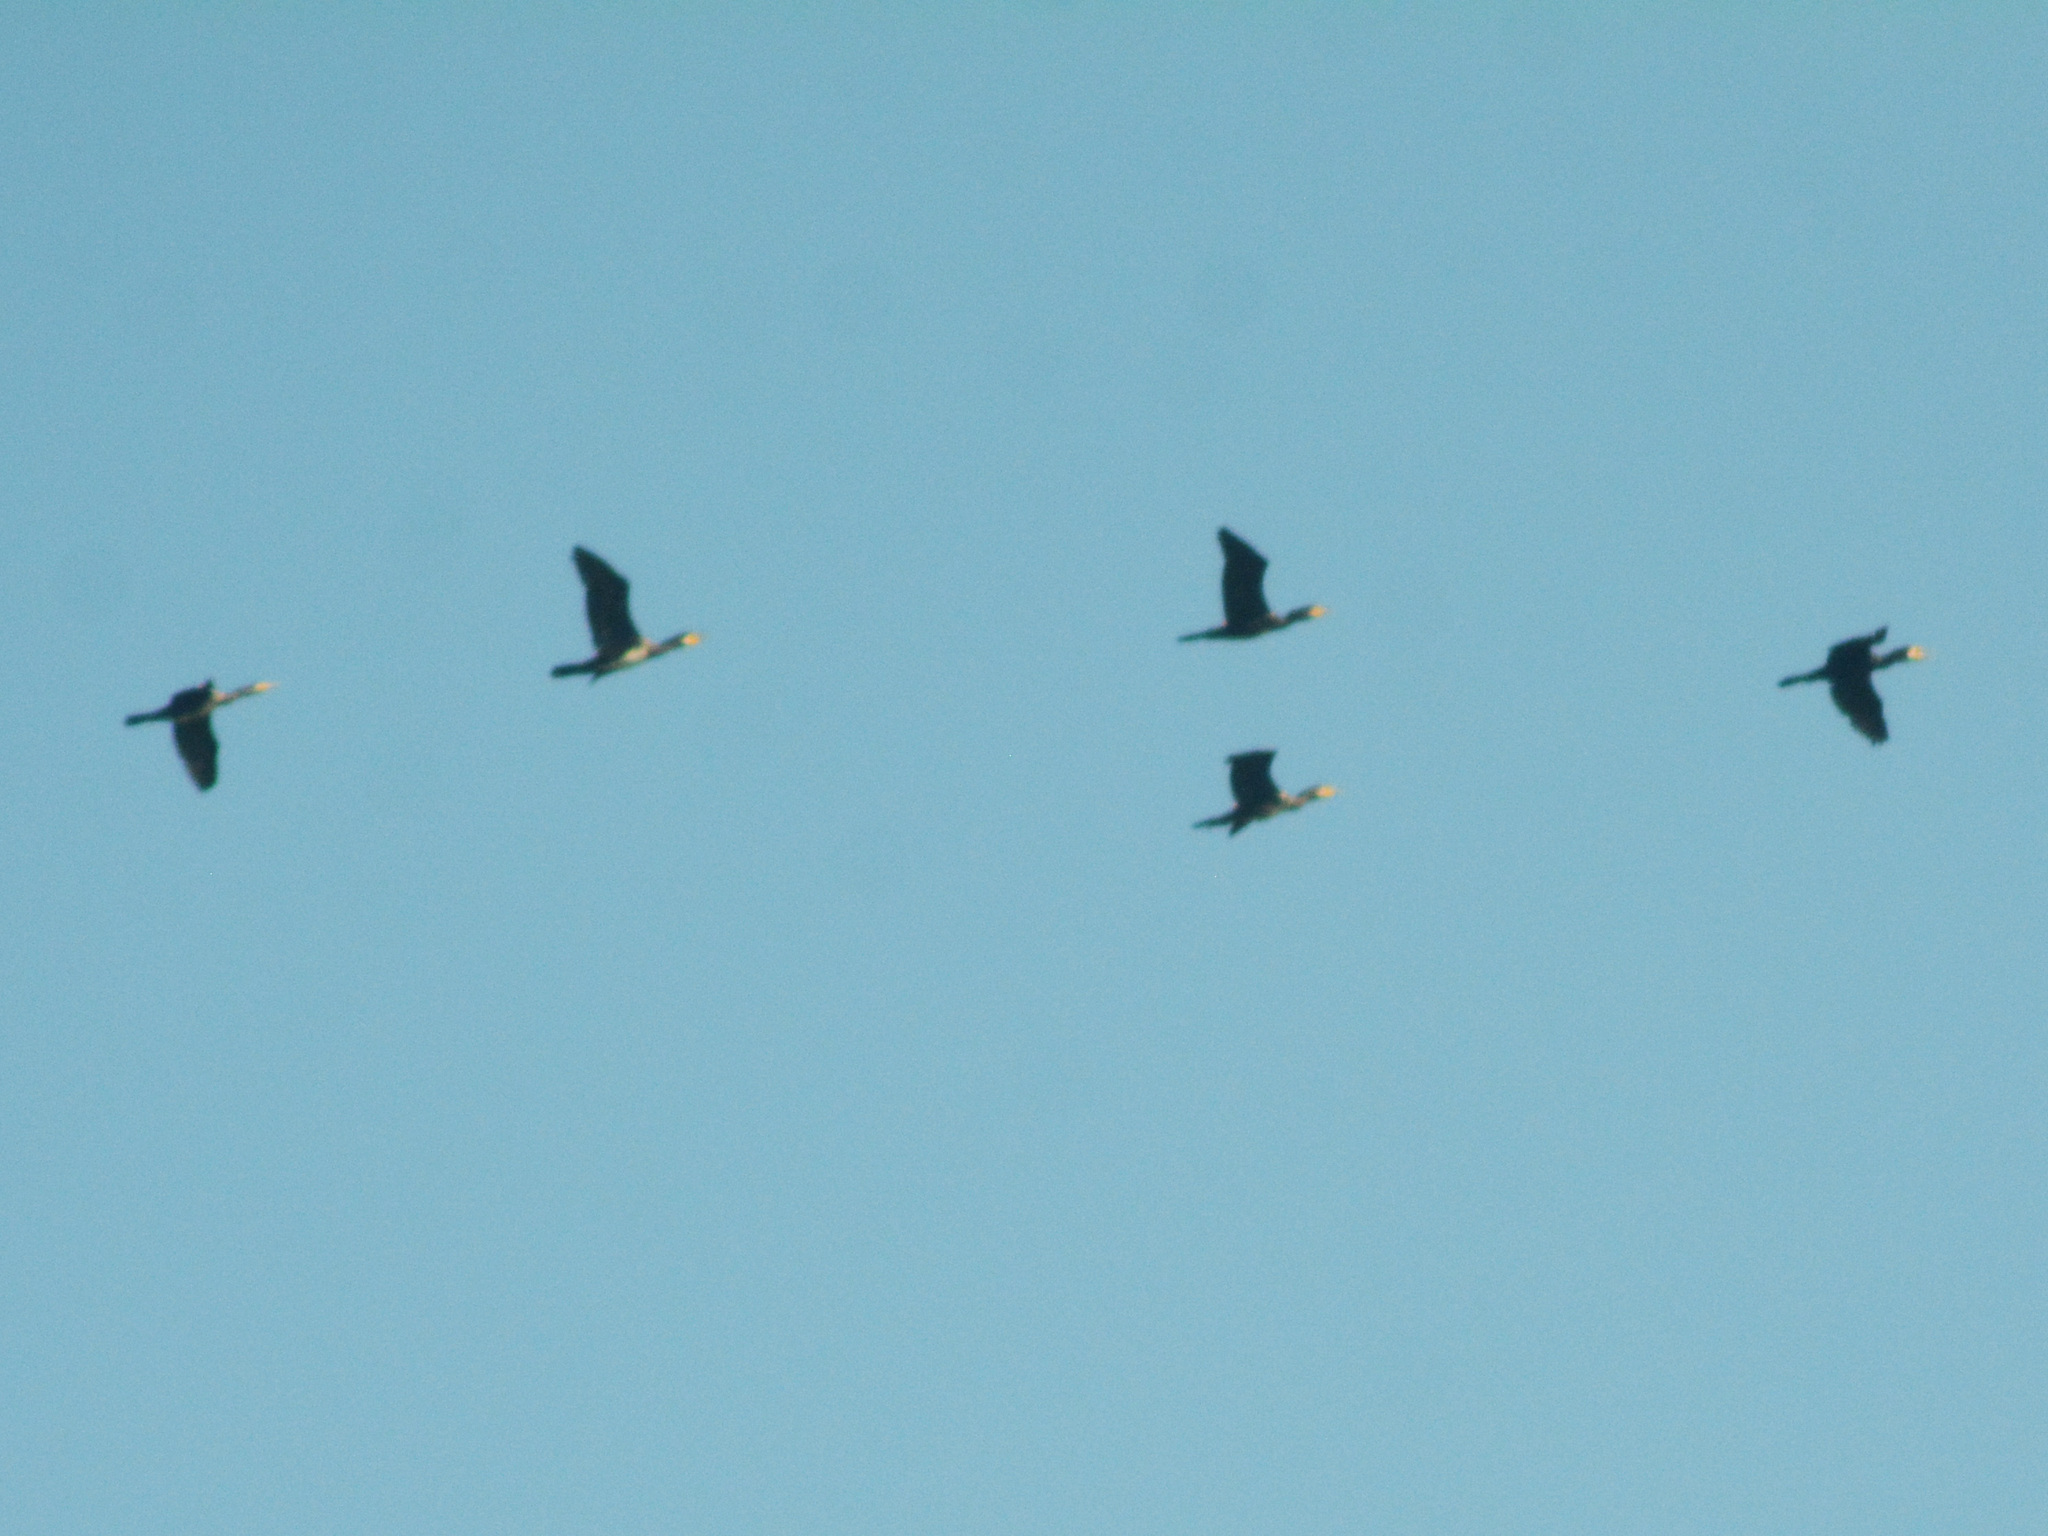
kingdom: Animalia
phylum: Chordata
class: Aves
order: Suliformes
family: Phalacrocoracidae
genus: Phalacrocorax
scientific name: Phalacrocorax carbo
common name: Great cormorant
